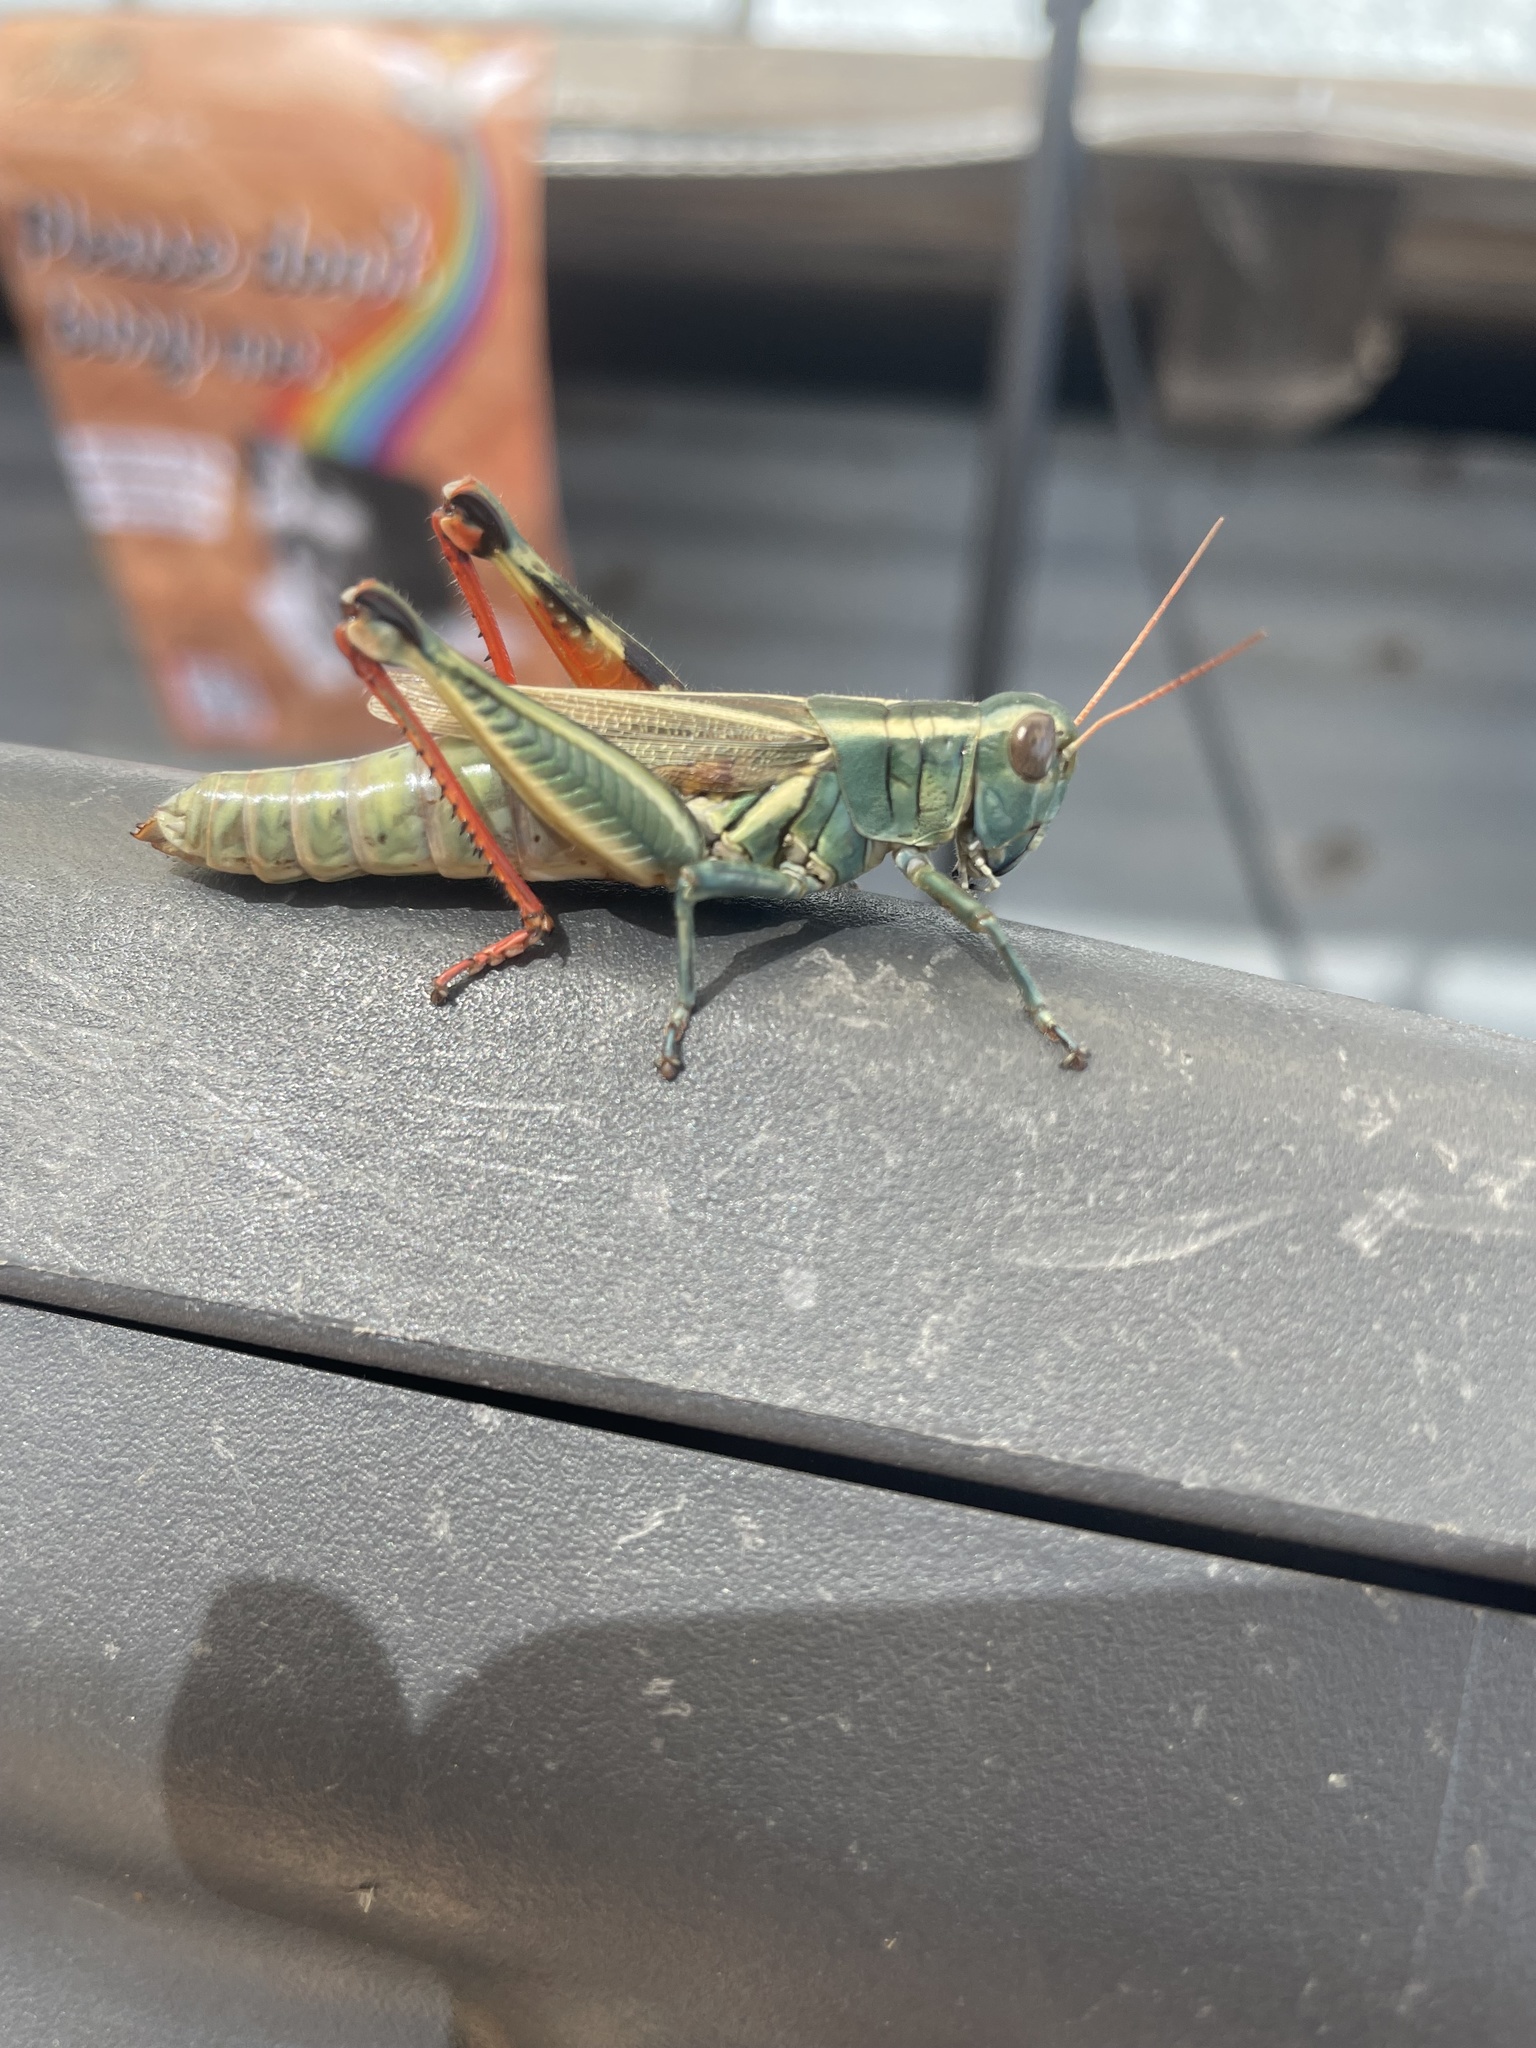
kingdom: Animalia
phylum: Arthropoda
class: Insecta
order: Orthoptera
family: Acrididae
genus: Melanoplus
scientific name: Melanoplus thomasi
